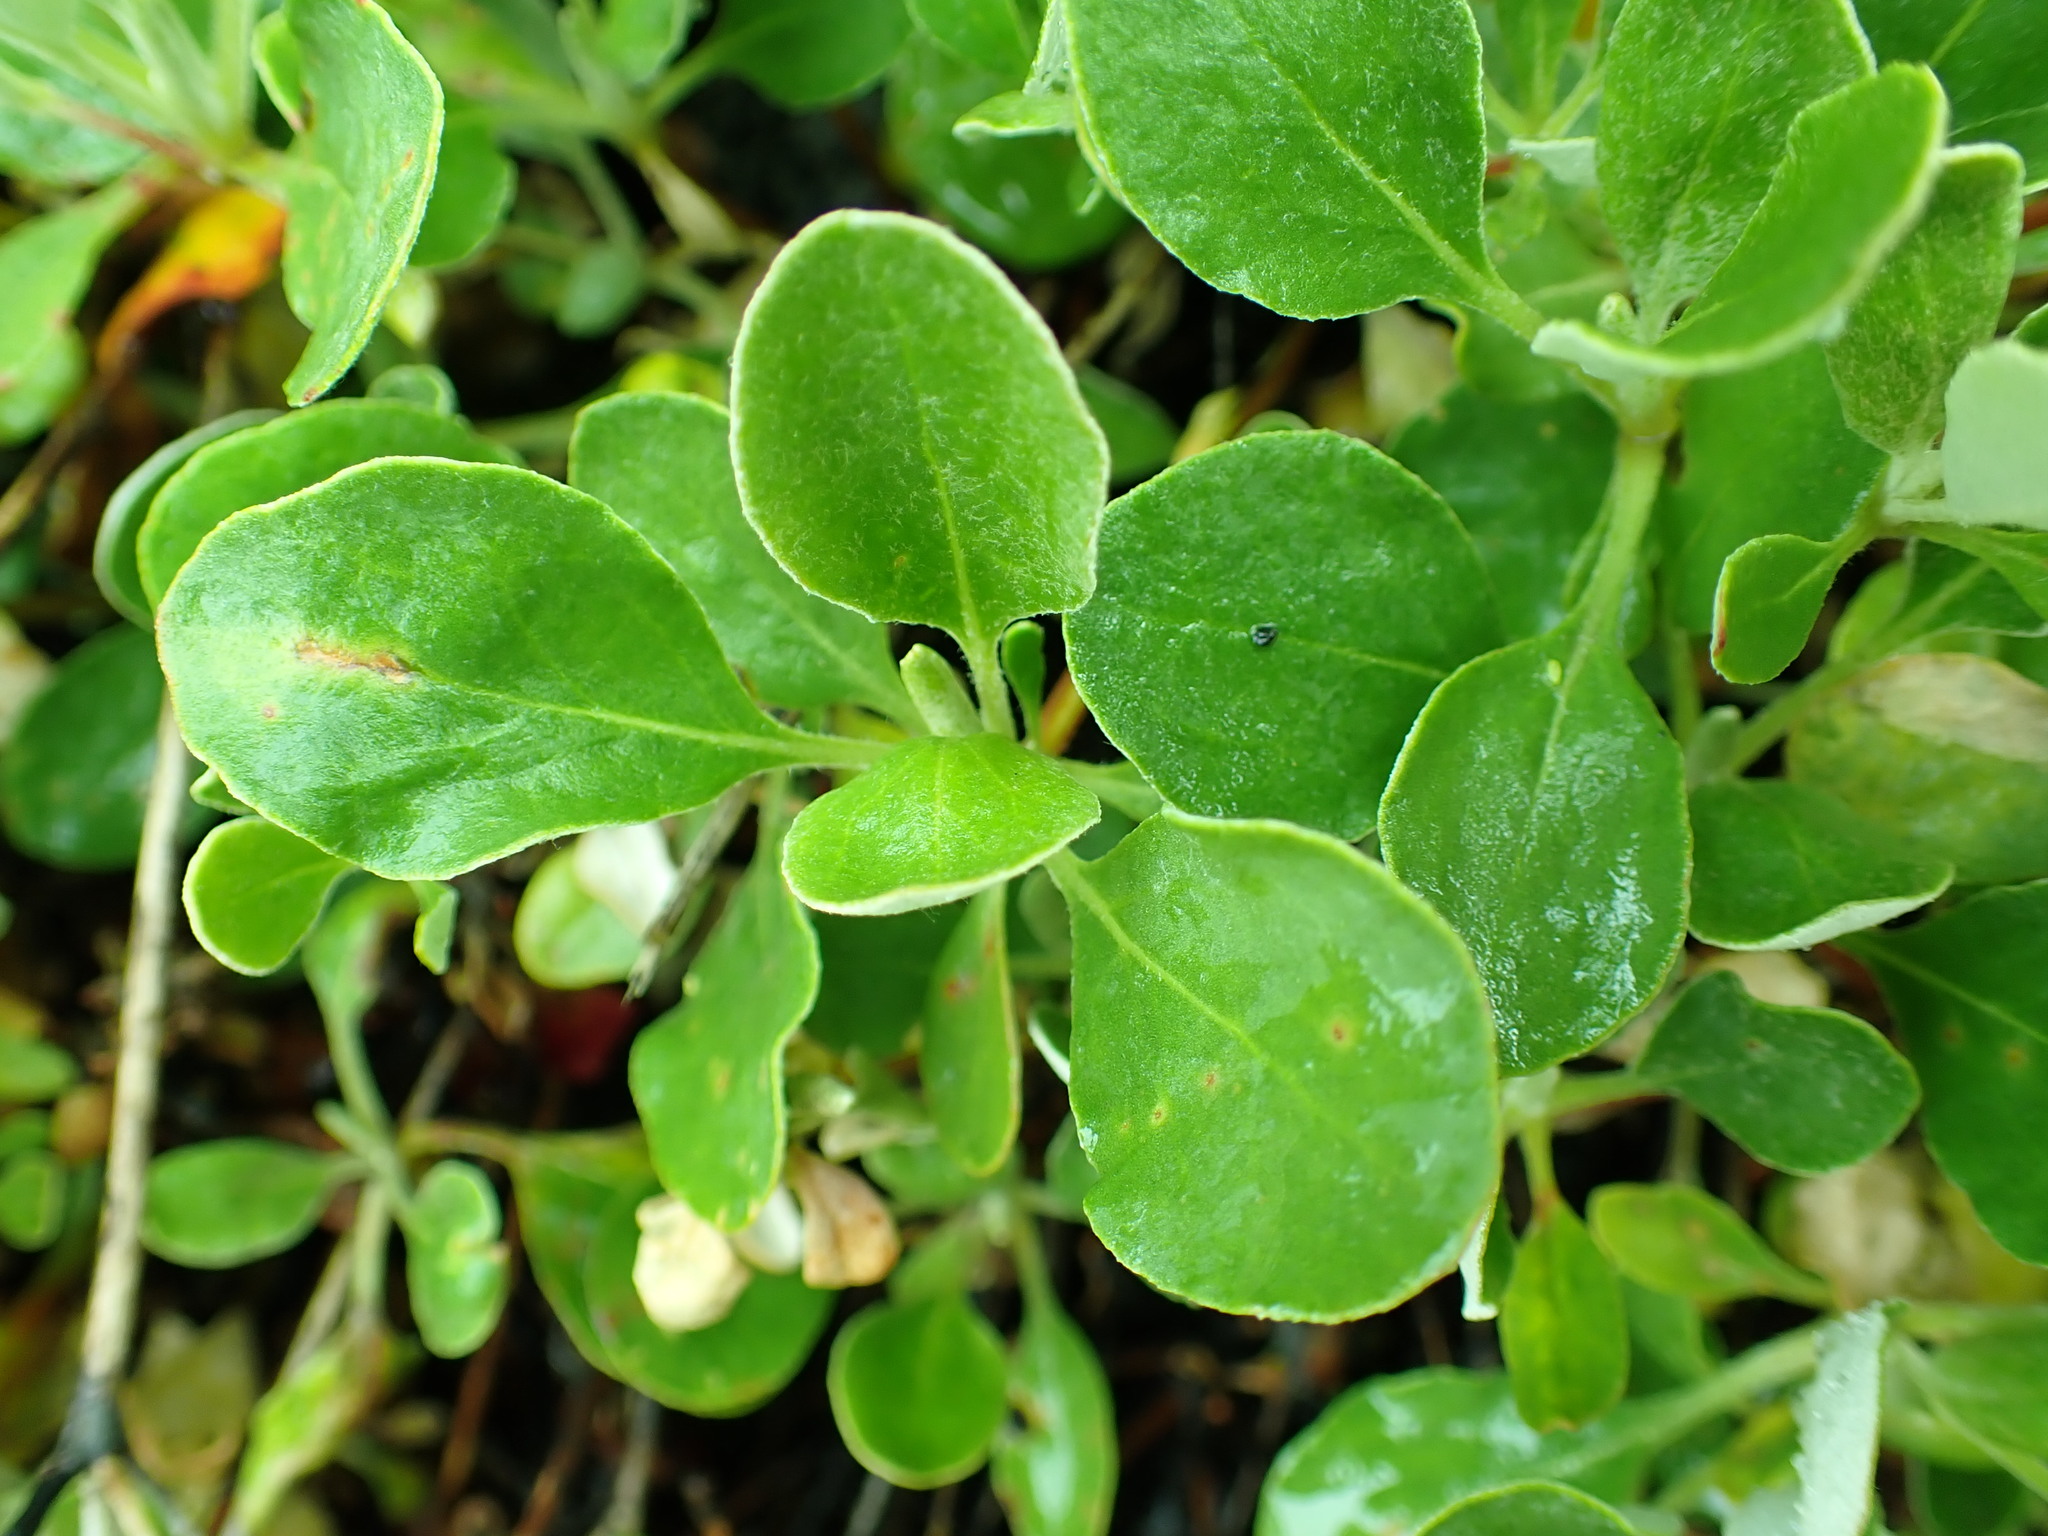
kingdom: Plantae
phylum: Tracheophyta
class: Magnoliopsida
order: Caryophyllales
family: Polygonaceae
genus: Eriogonum
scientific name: Eriogonum umbellatum
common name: Sulfur-buckwheat
